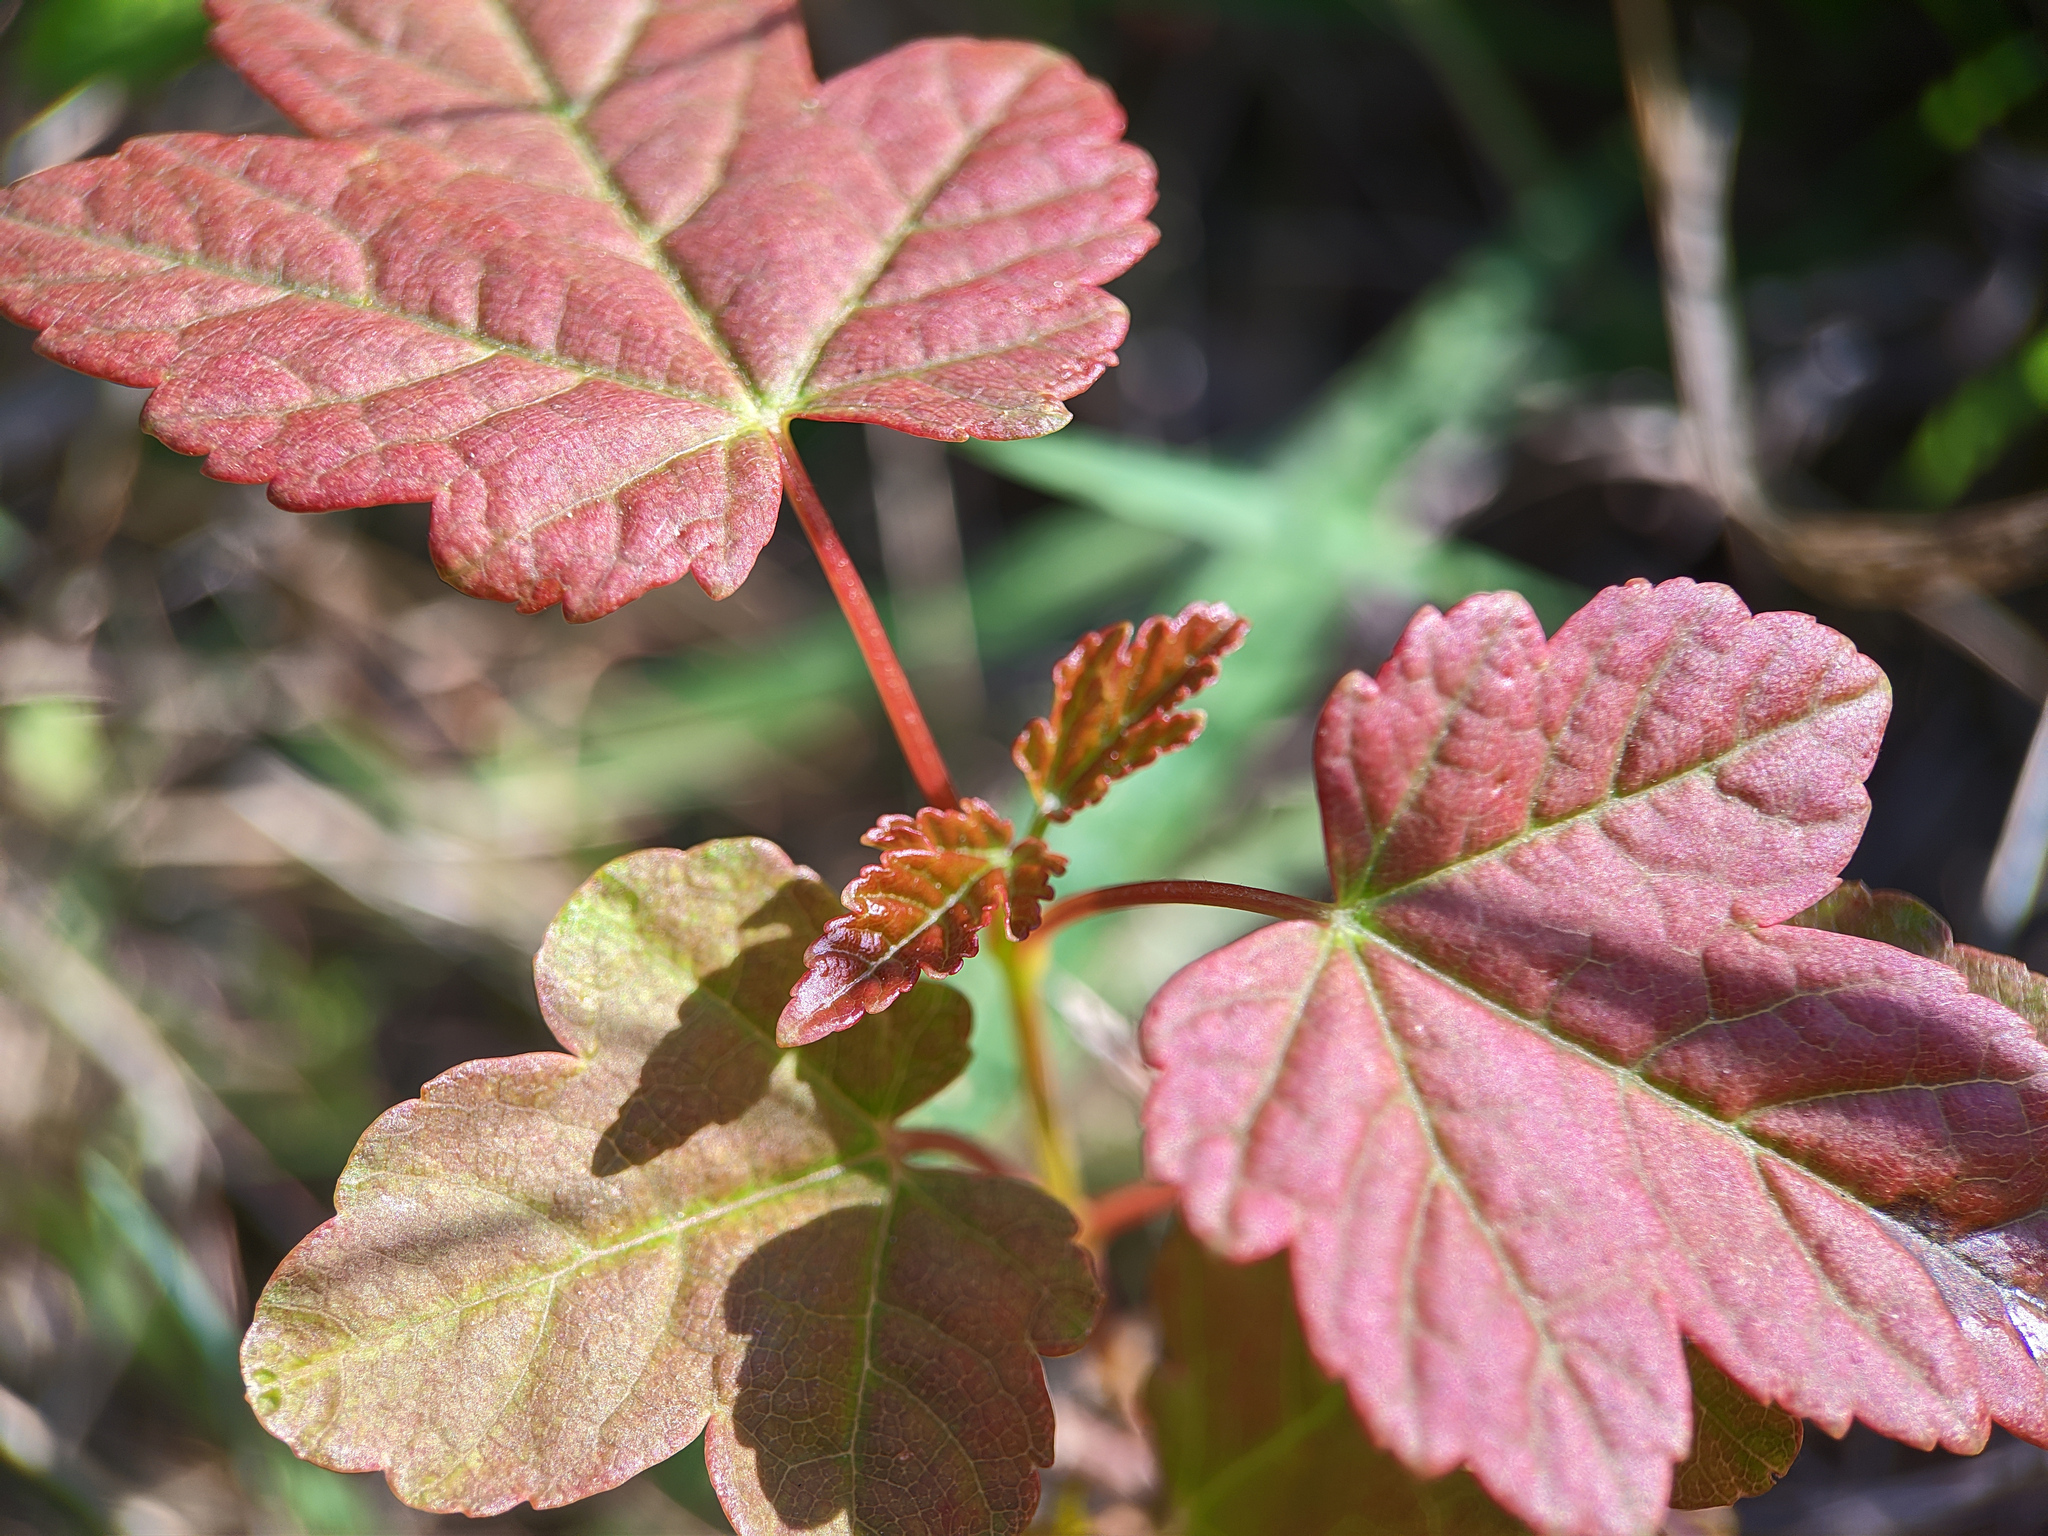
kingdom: Plantae
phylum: Tracheophyta
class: Magnoliopsida
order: Sapindales
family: Sapindaceae
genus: Acer
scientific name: Acer pseudoplatanus
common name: Sycamore
